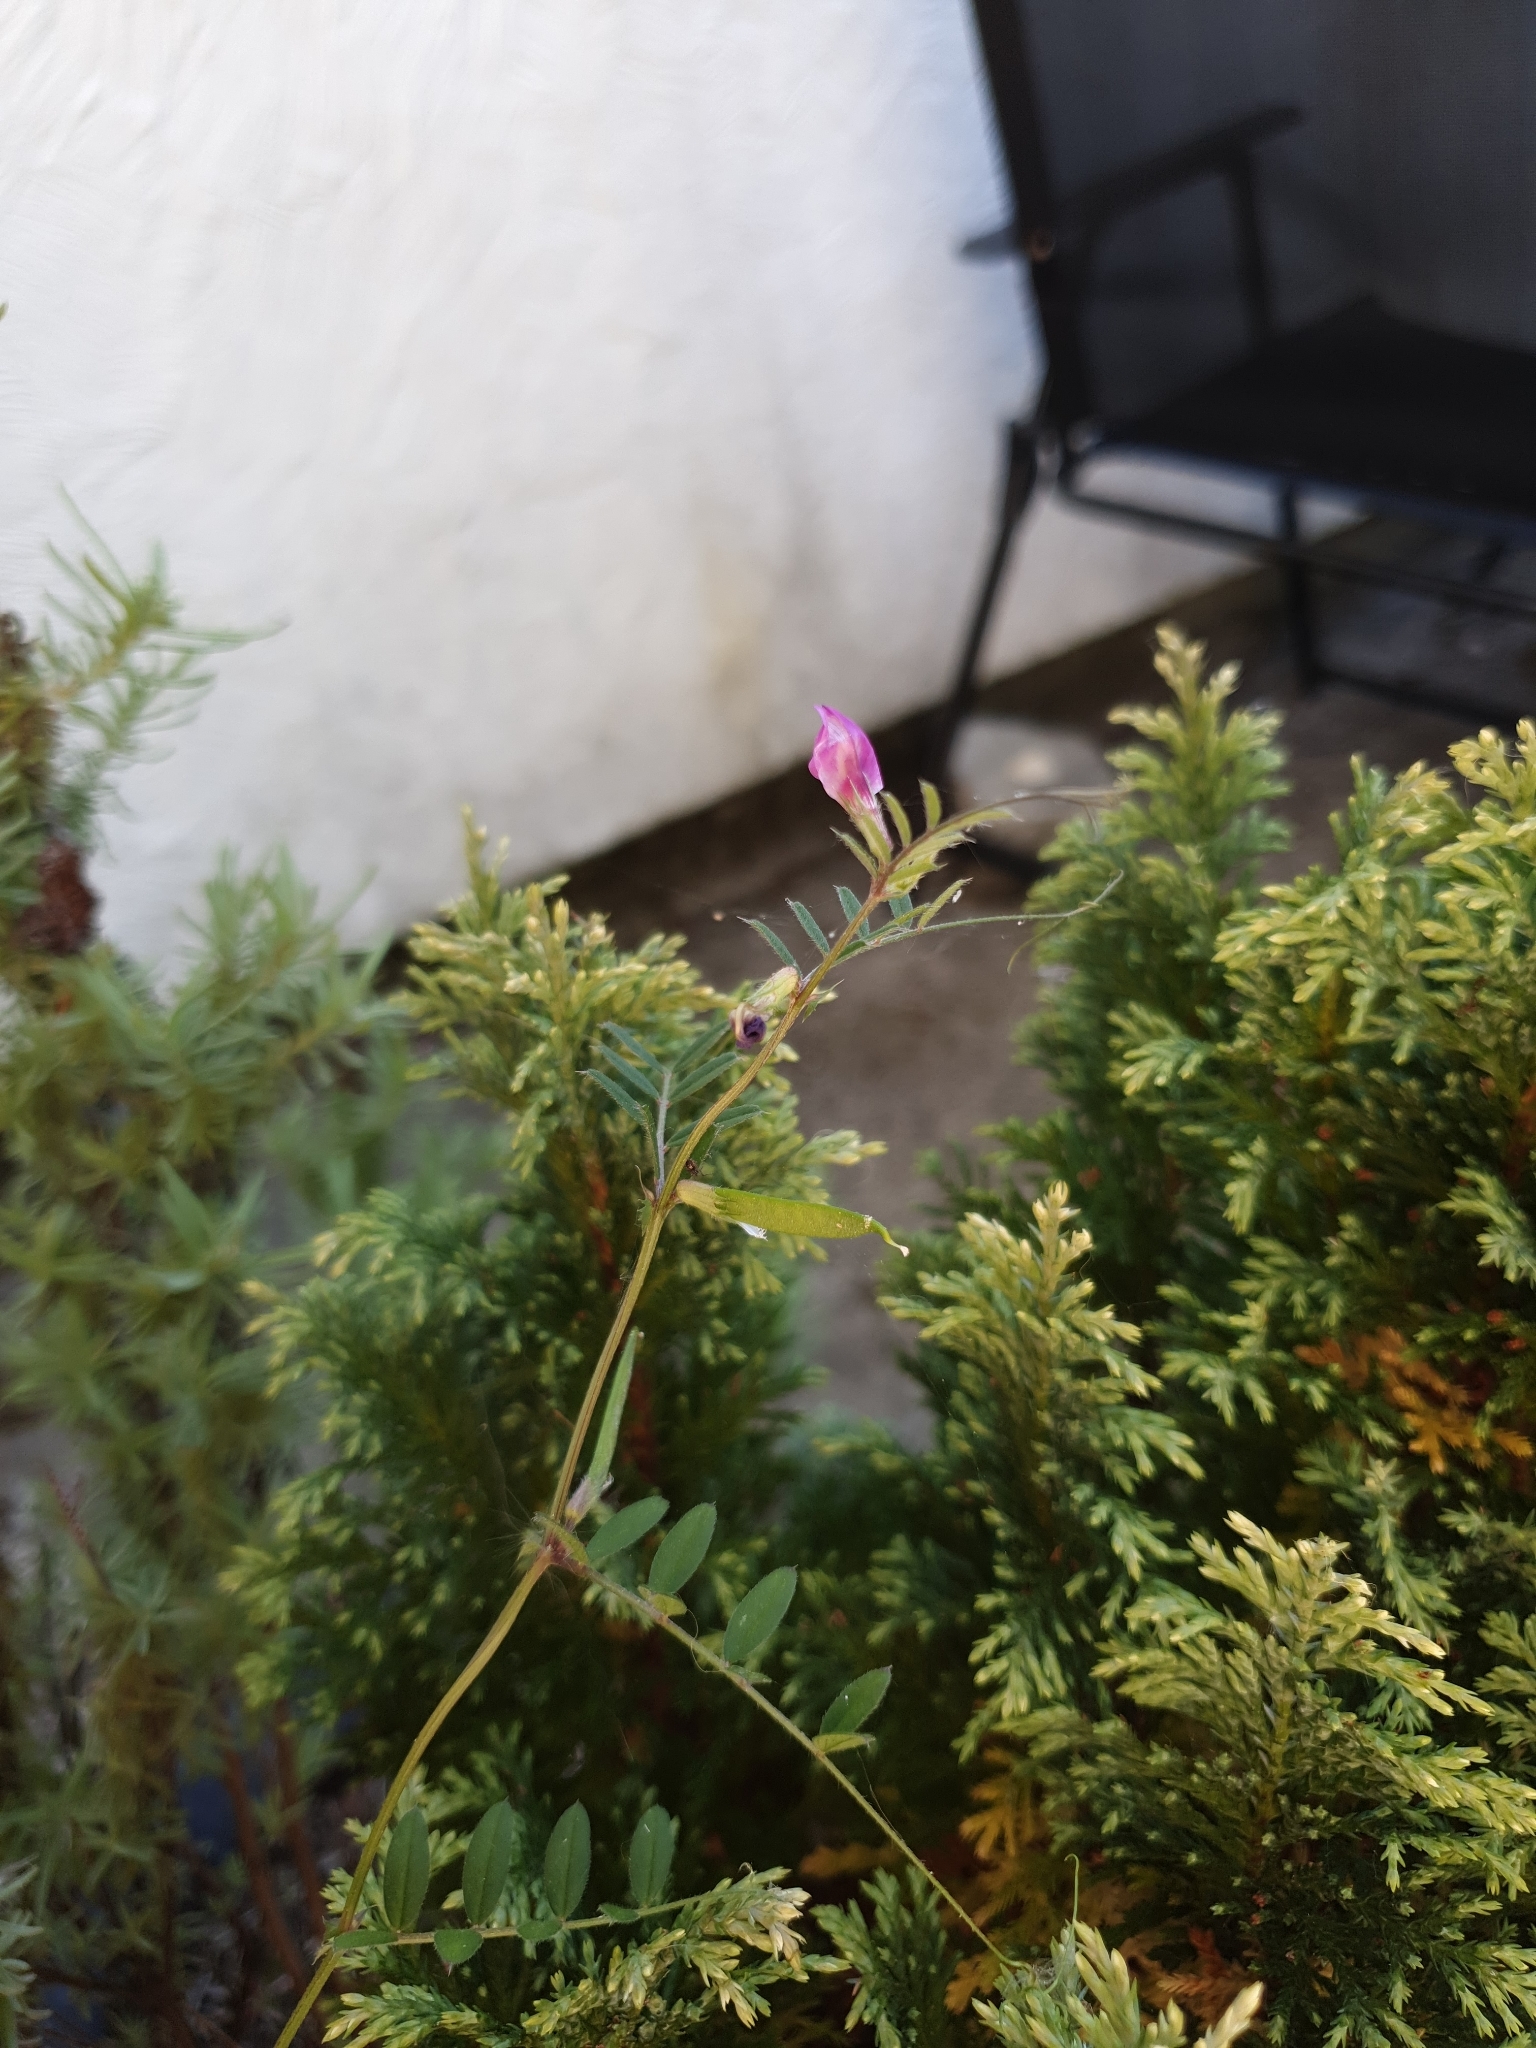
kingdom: Plantae
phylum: Tracheophyta
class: Magnoliopsida
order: Fabales
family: Fabaceae
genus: Vicia
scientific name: Vicia sativa
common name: Garden vetch
